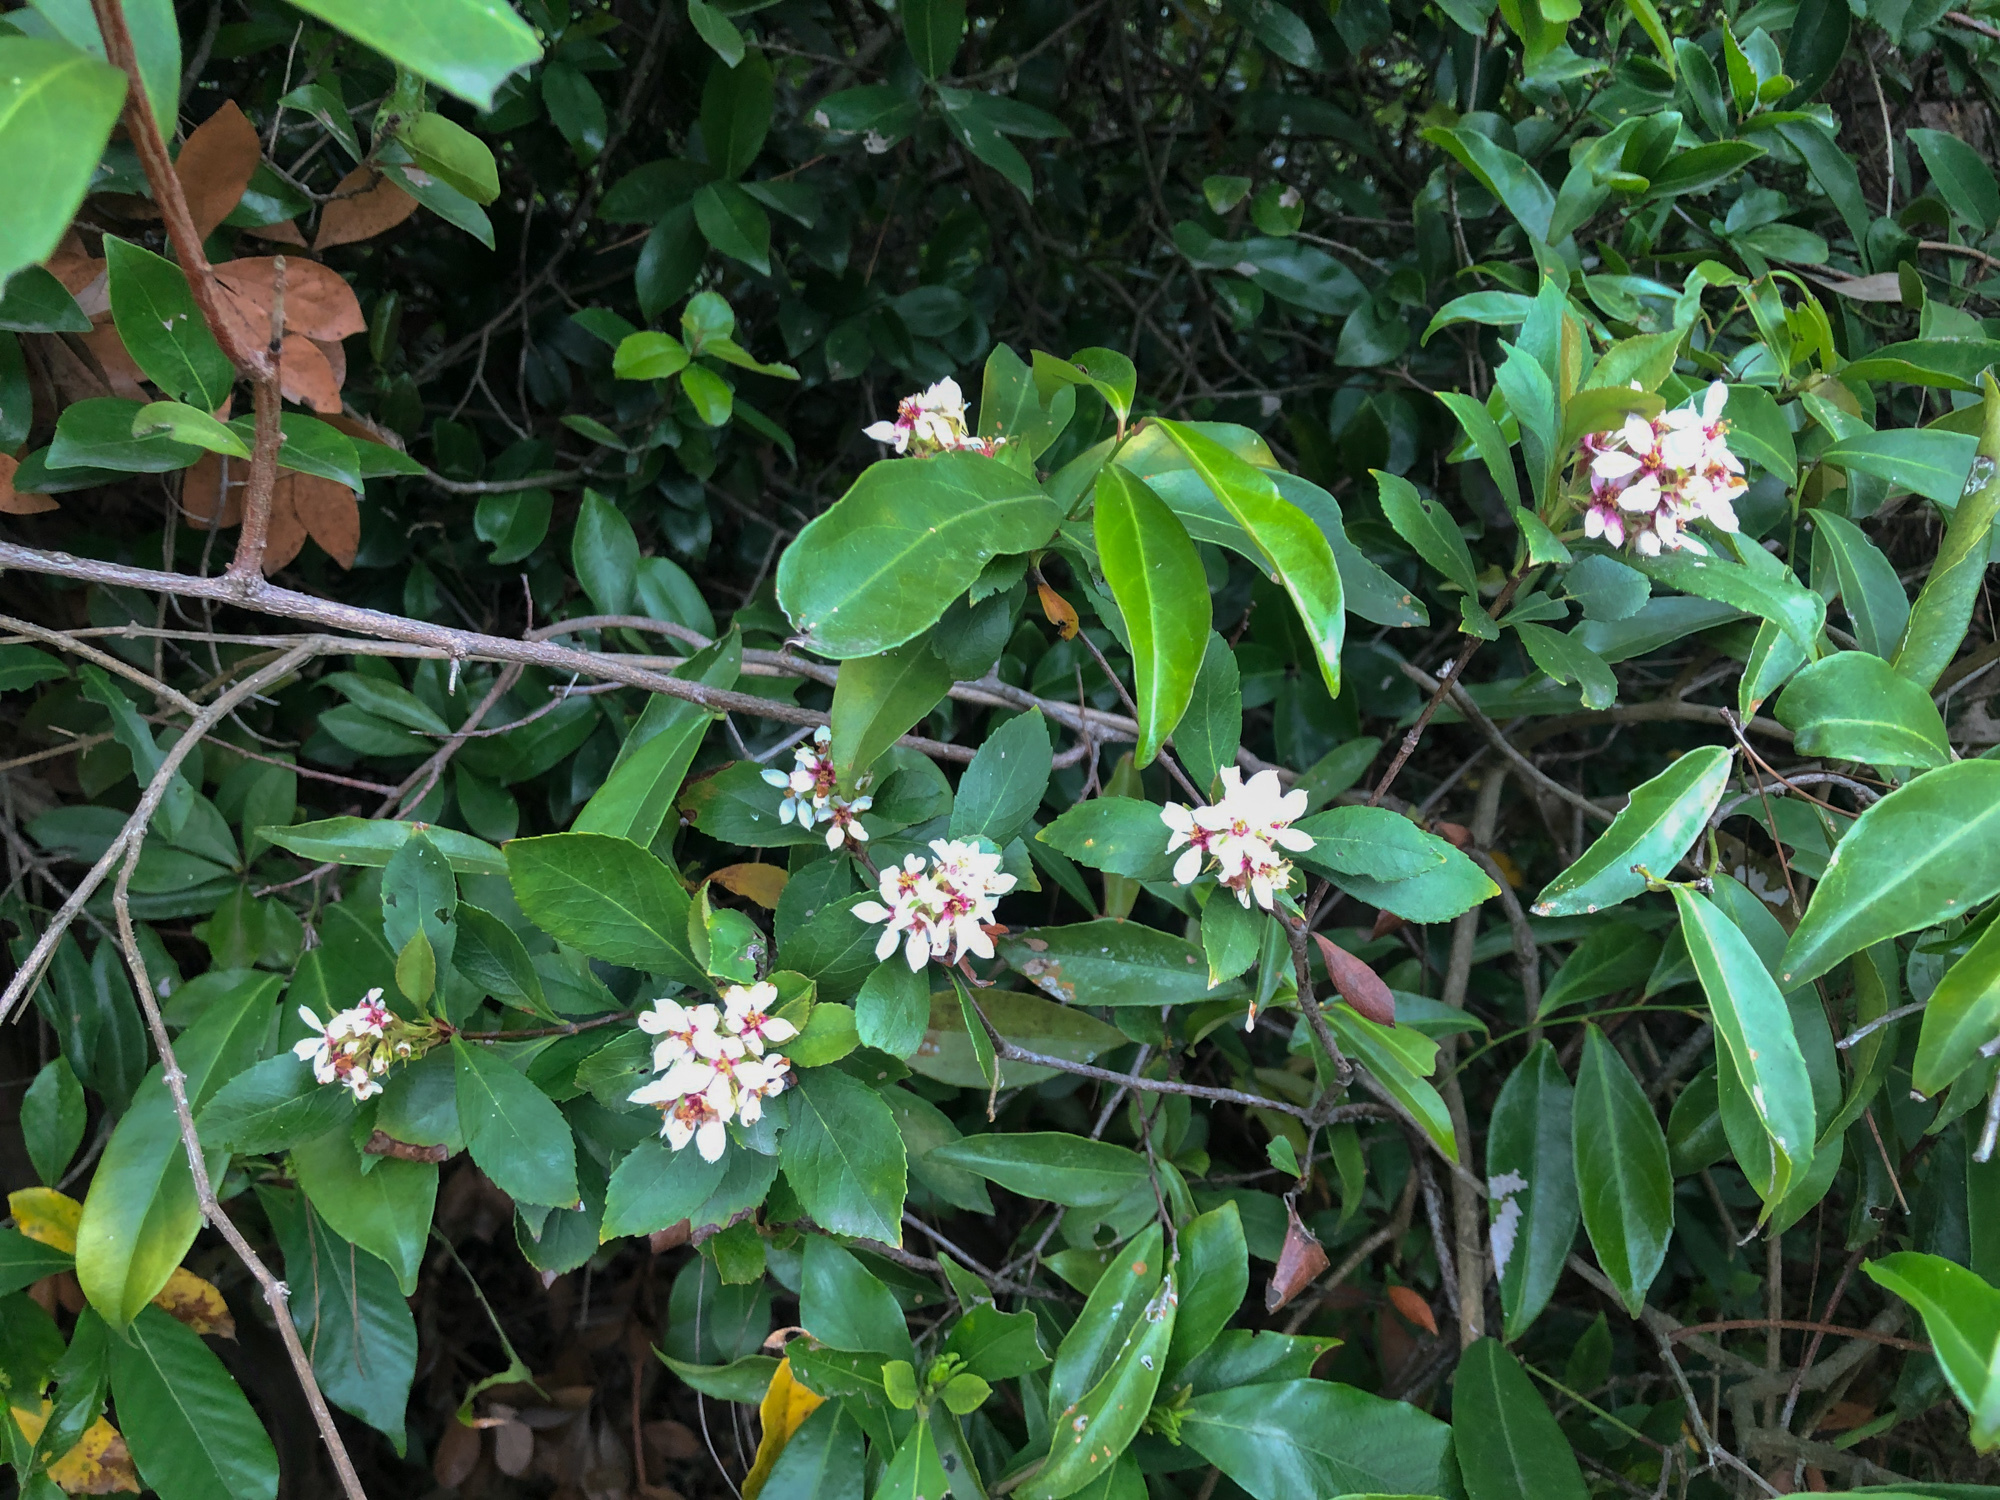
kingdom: Plantae
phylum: Tracheophyta
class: Magnoliopsida
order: Rosales
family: Rosaceae
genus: Rhaphiolepis
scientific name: Rhaphiolepis indica
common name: India-hawthorn
